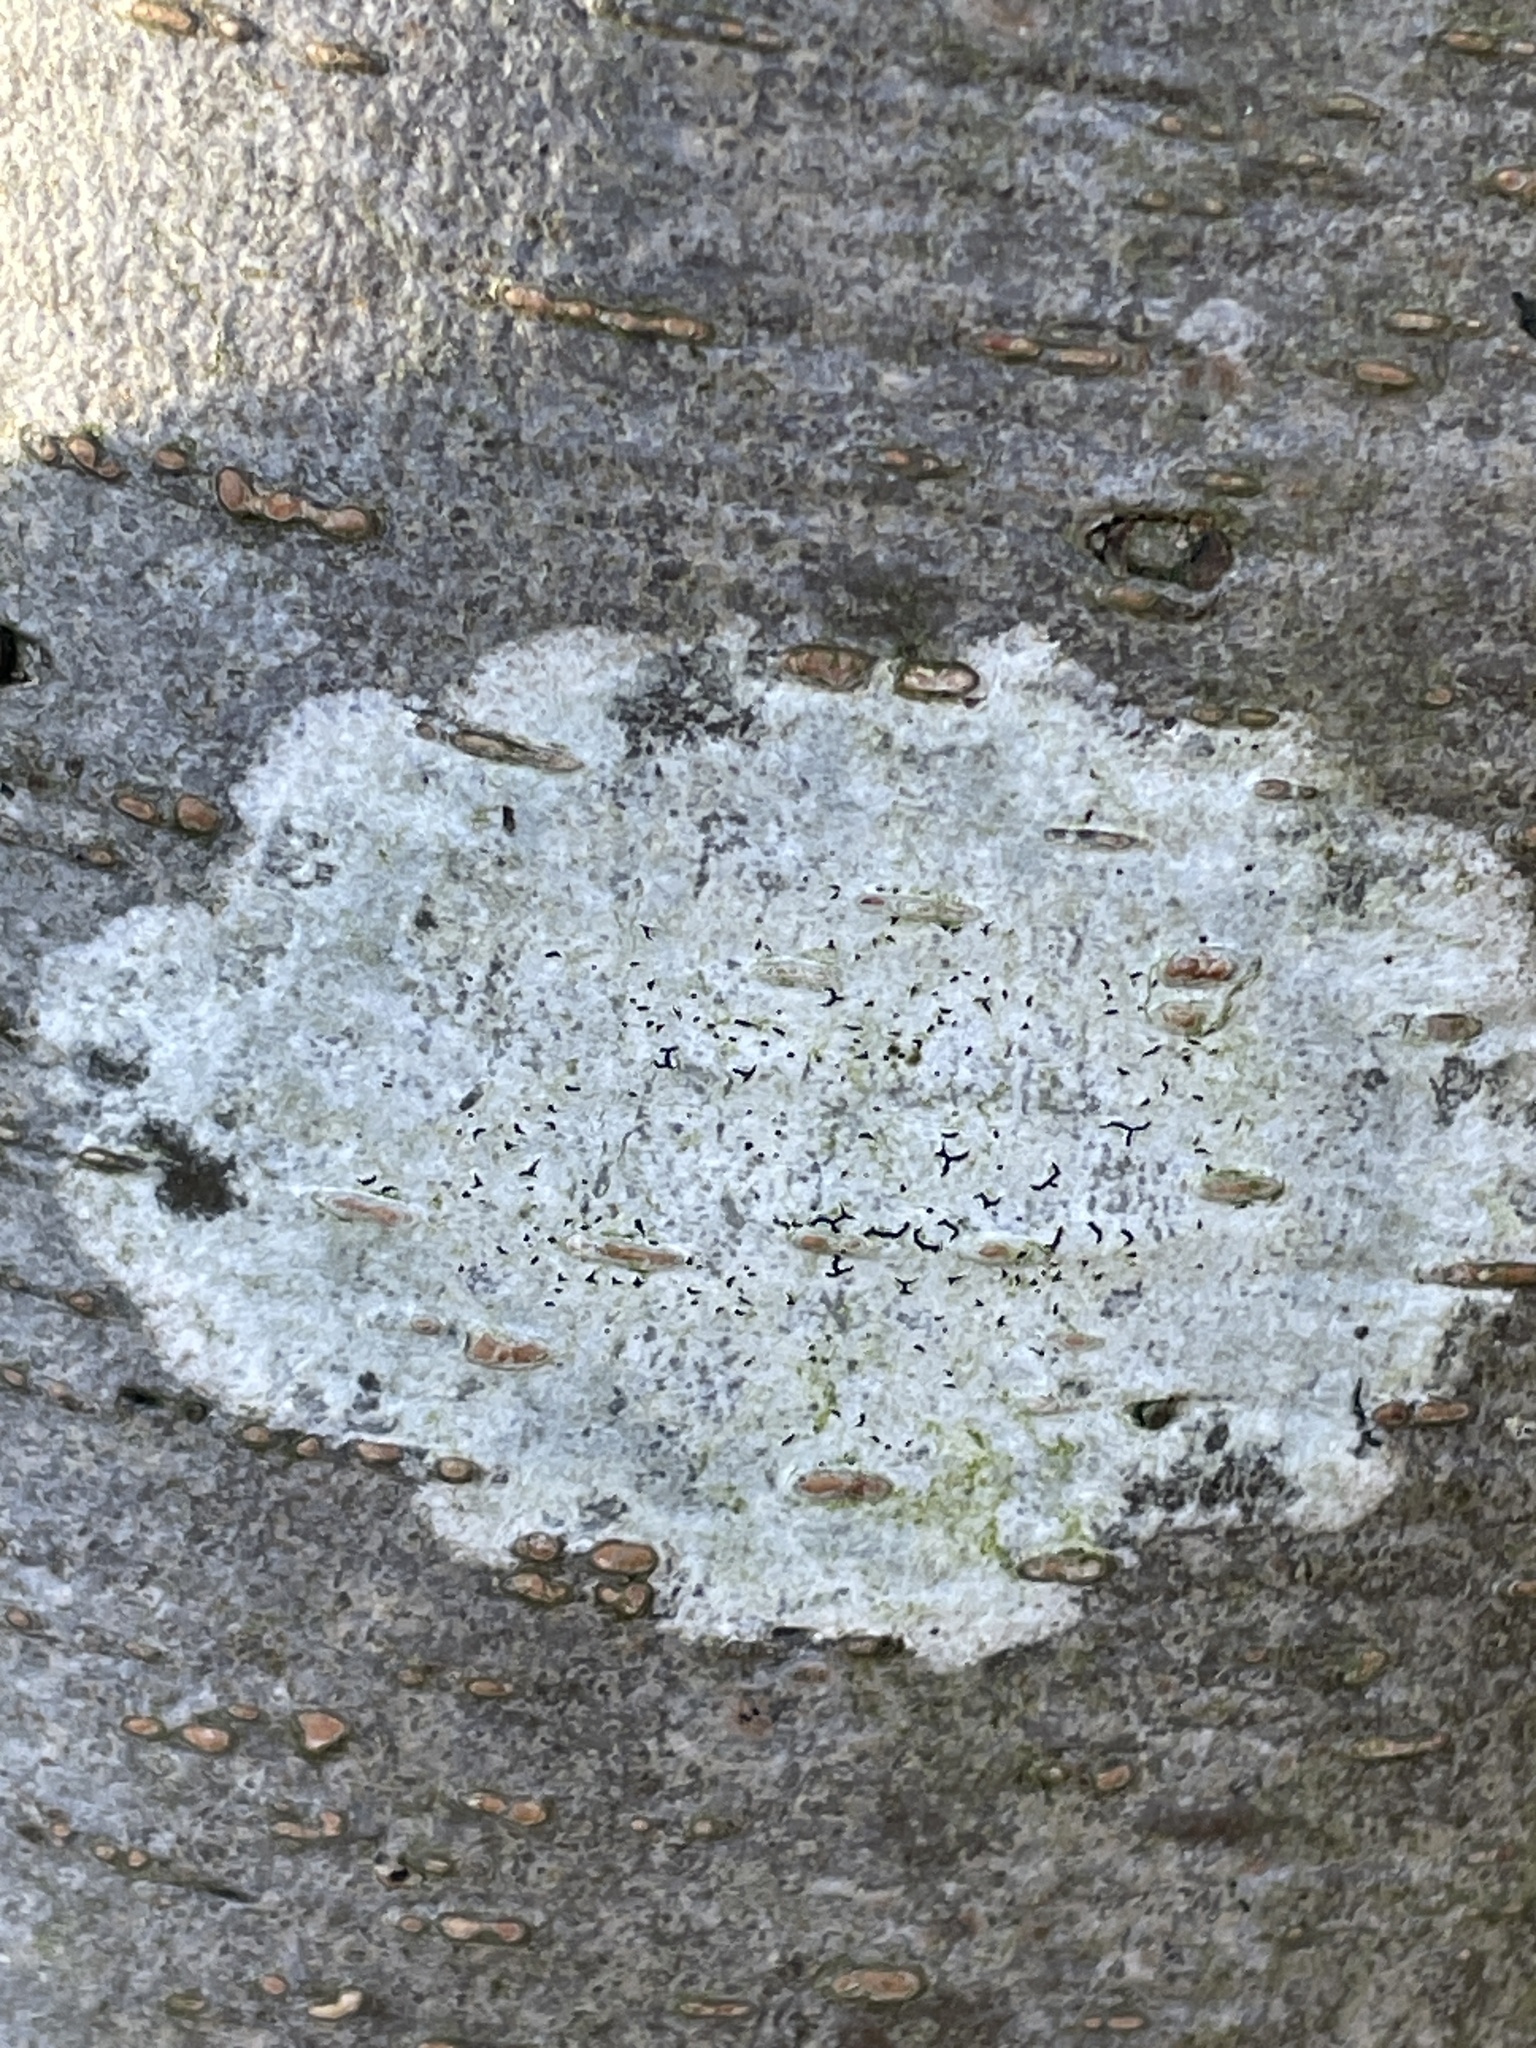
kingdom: Fungi
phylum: Ascomycota
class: Lecanoromycetes
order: Ostropales
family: Graphidaceae
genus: Graphis
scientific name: Graphis scripta
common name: Script lichen
